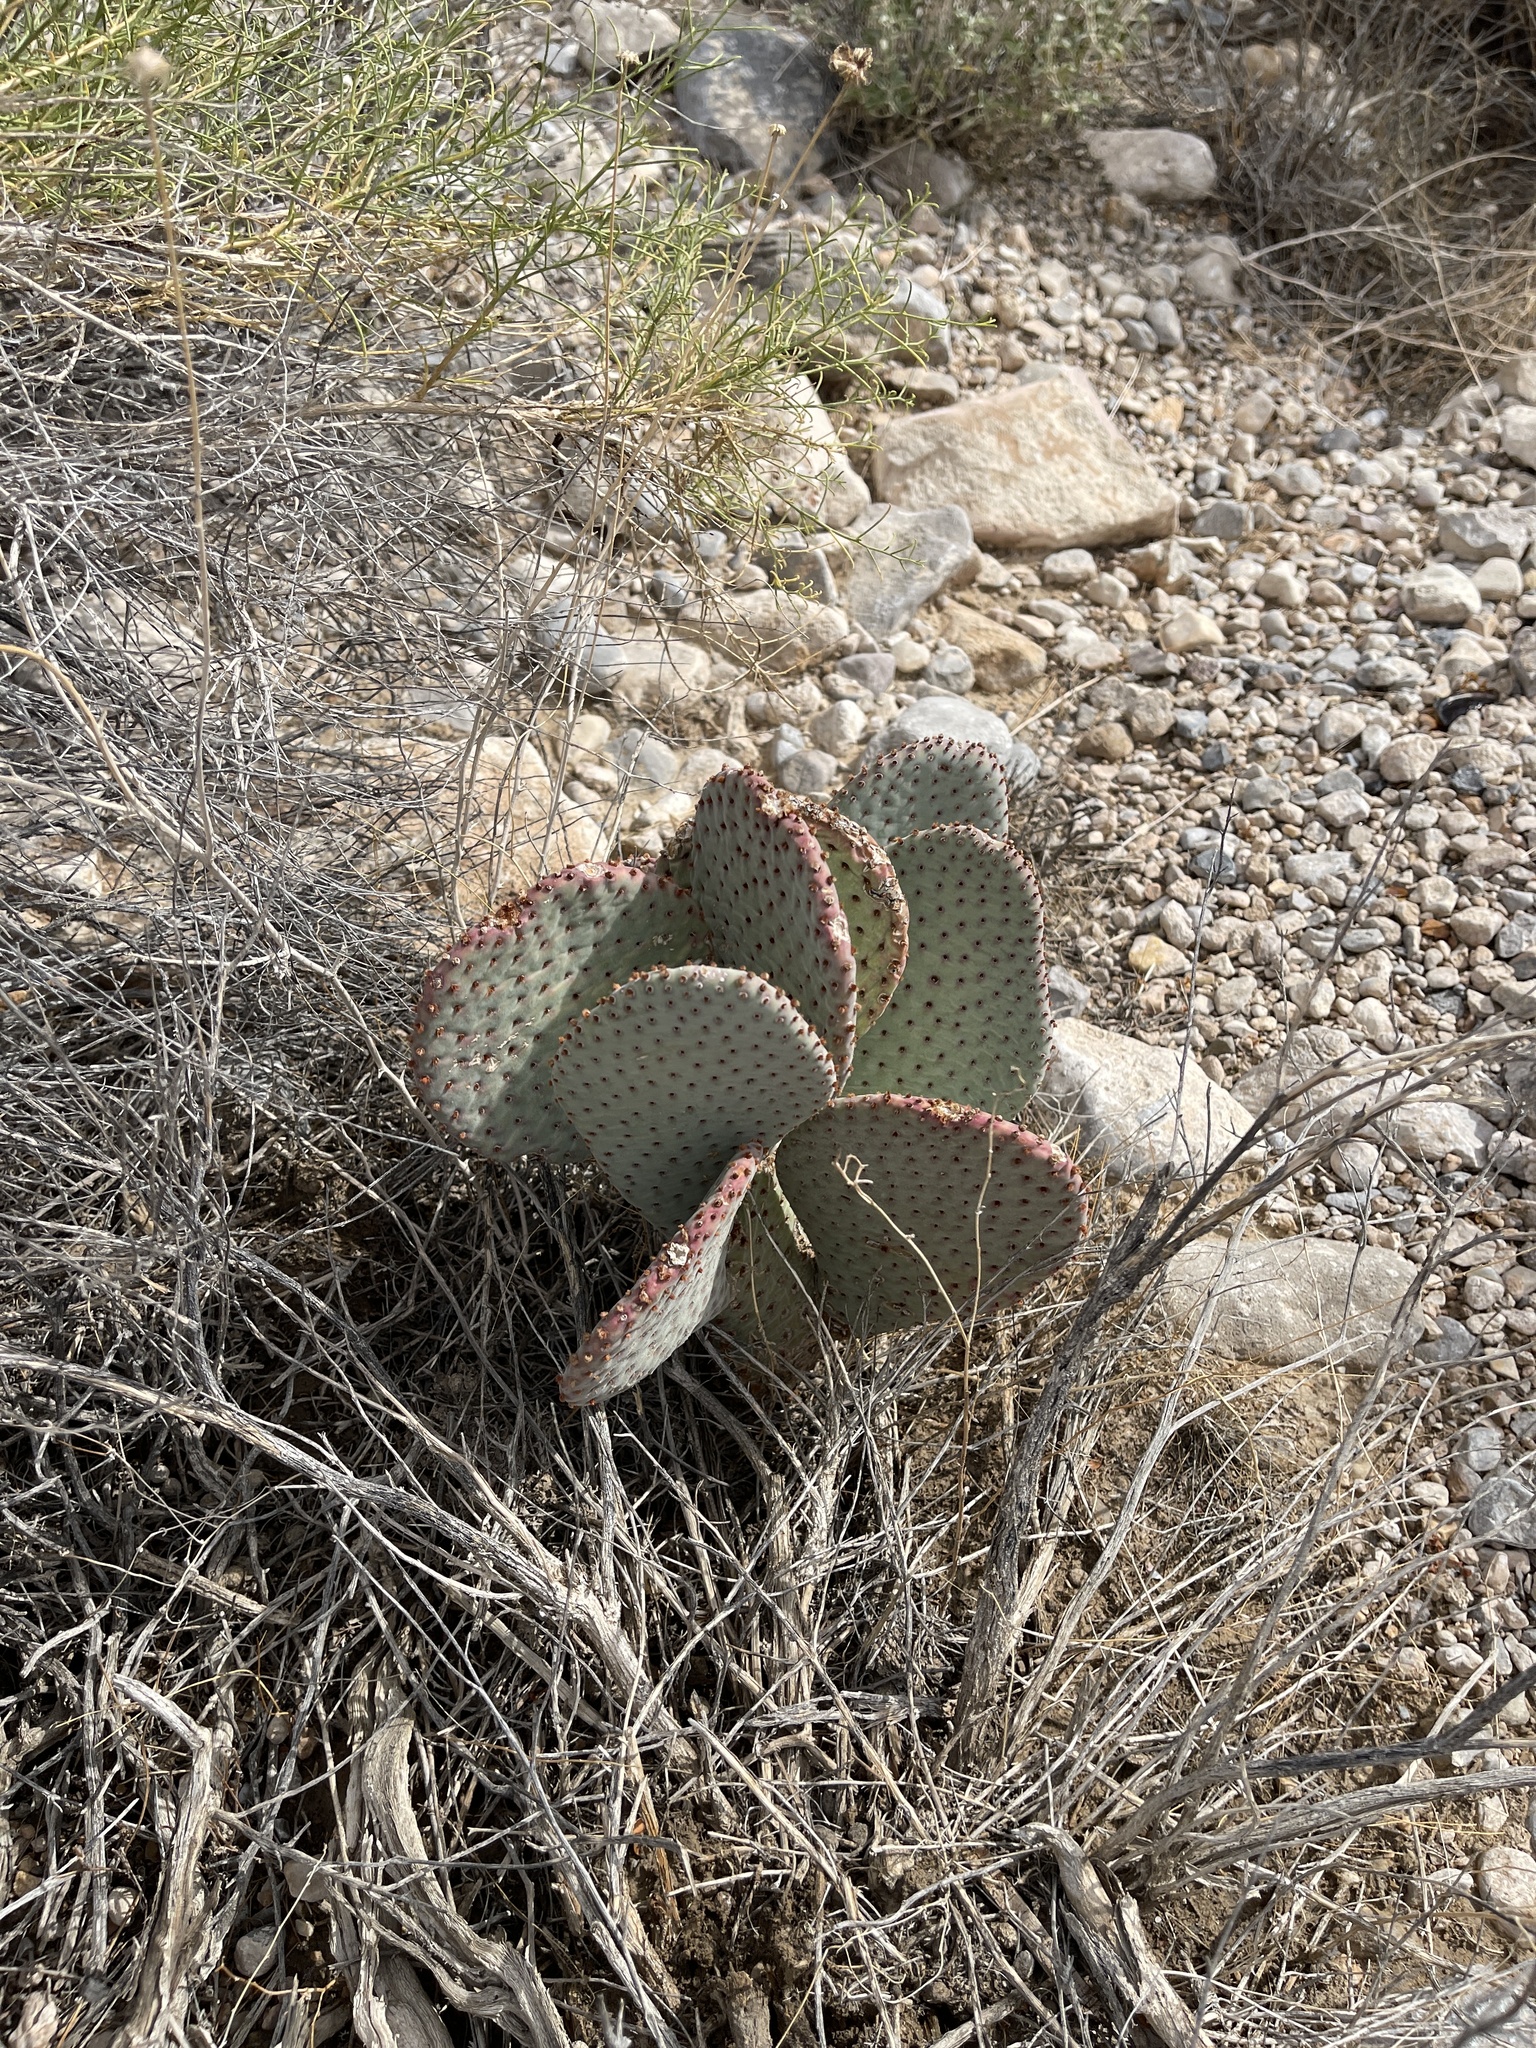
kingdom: Plantae
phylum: Tracheophyta
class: Magnoliopsida
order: Caryophyllales
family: Cactaceae
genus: Opuntia
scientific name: Opuntia basilaris
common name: Beavertail prickly-pear
